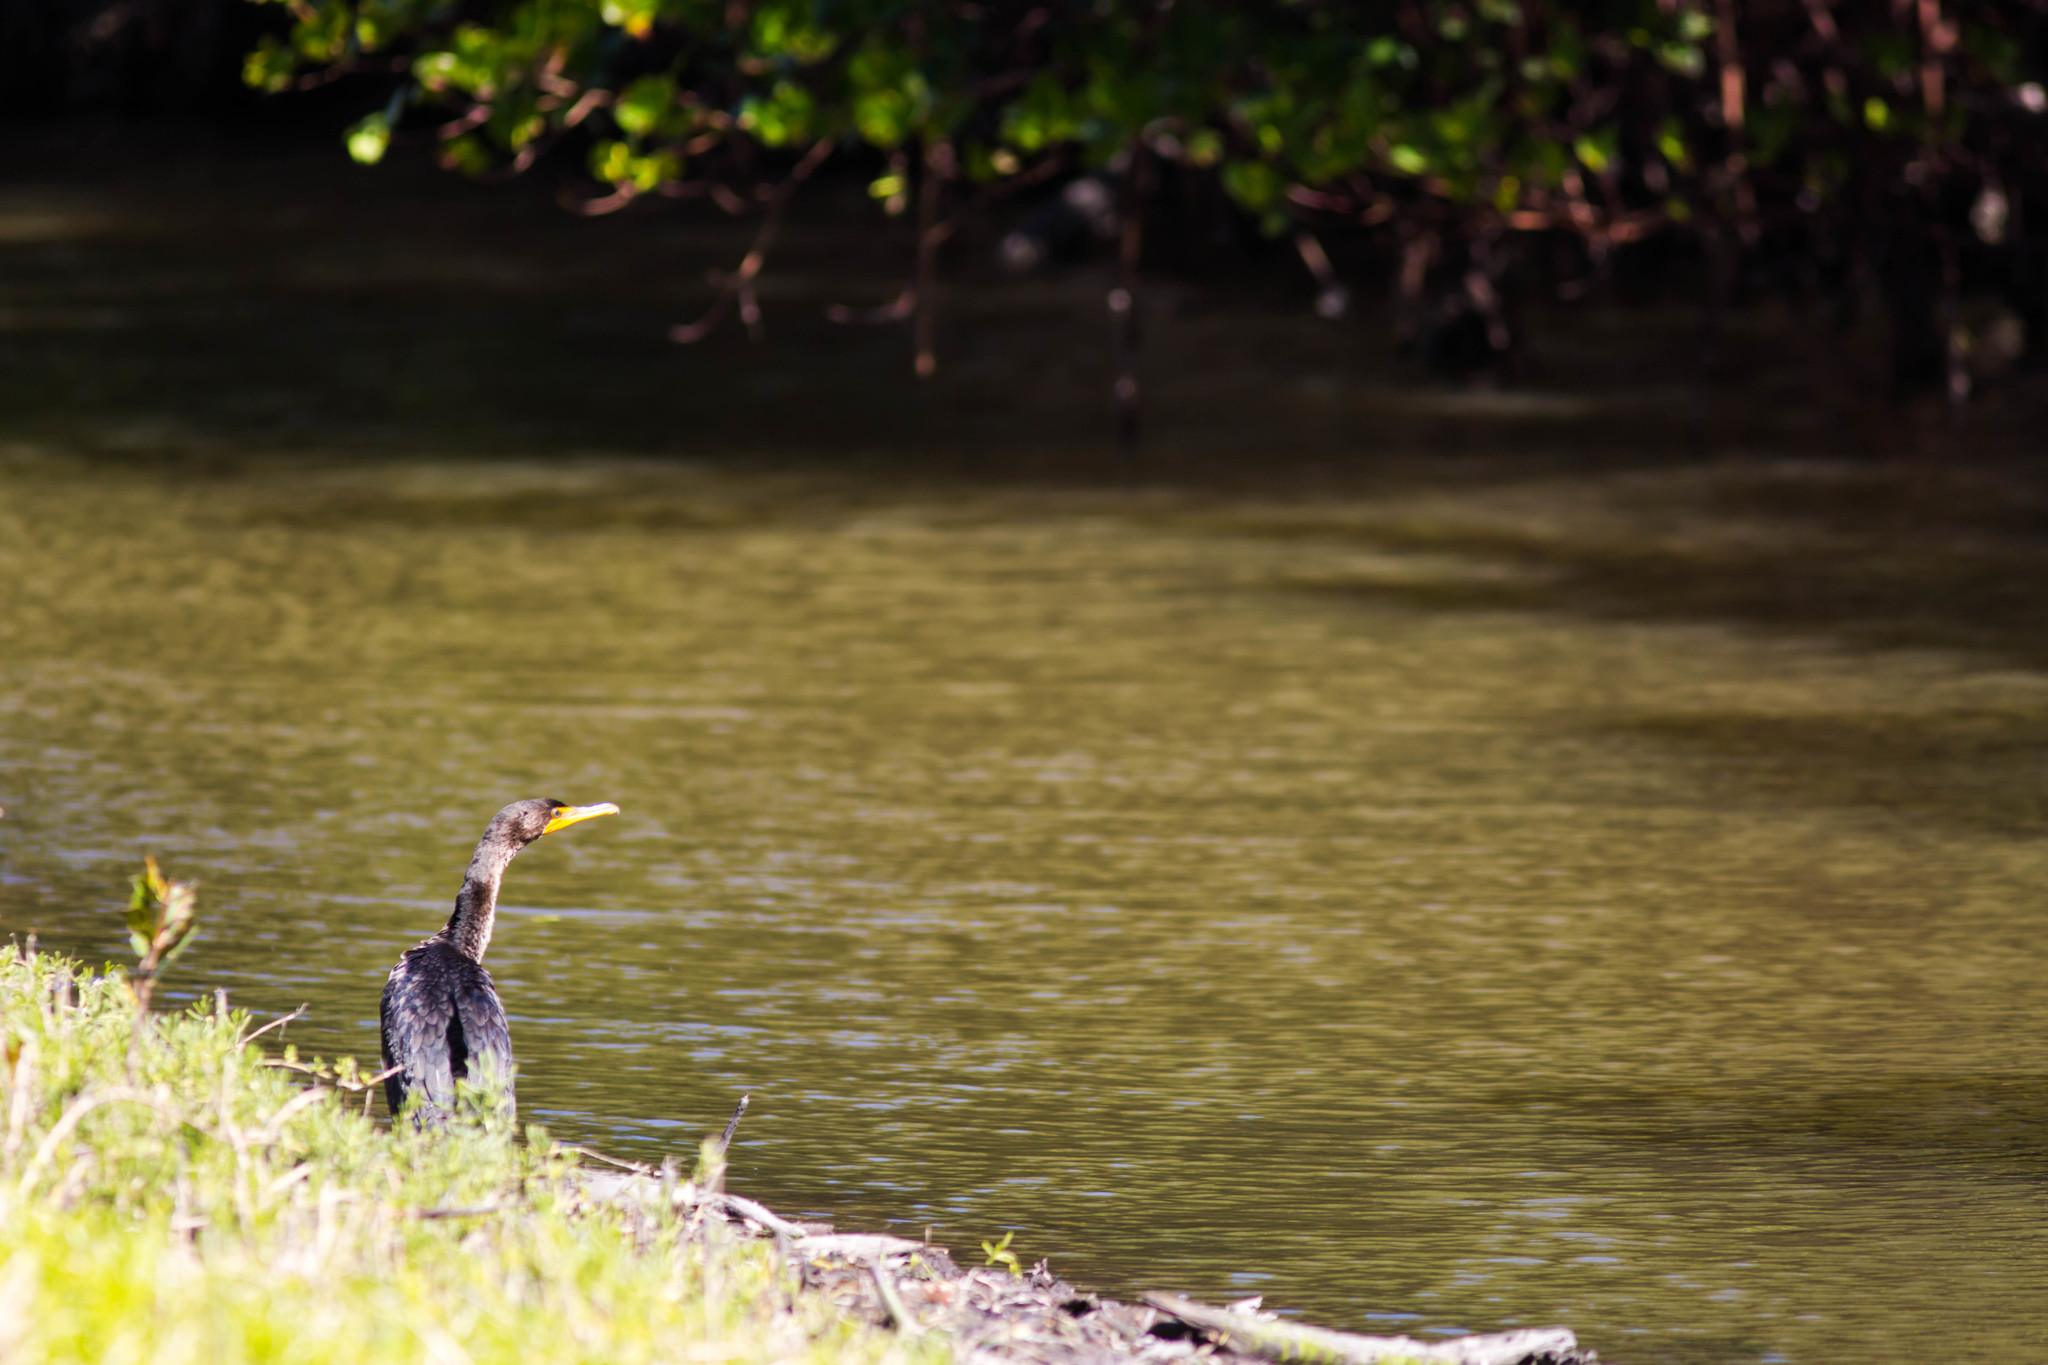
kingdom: Animalia
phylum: Chordata
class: Aves
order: Suliformes
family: Phalacrocoracidae
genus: Phalacrocorax
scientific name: Phalacrocorax auritus
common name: Double-crested cormorant
